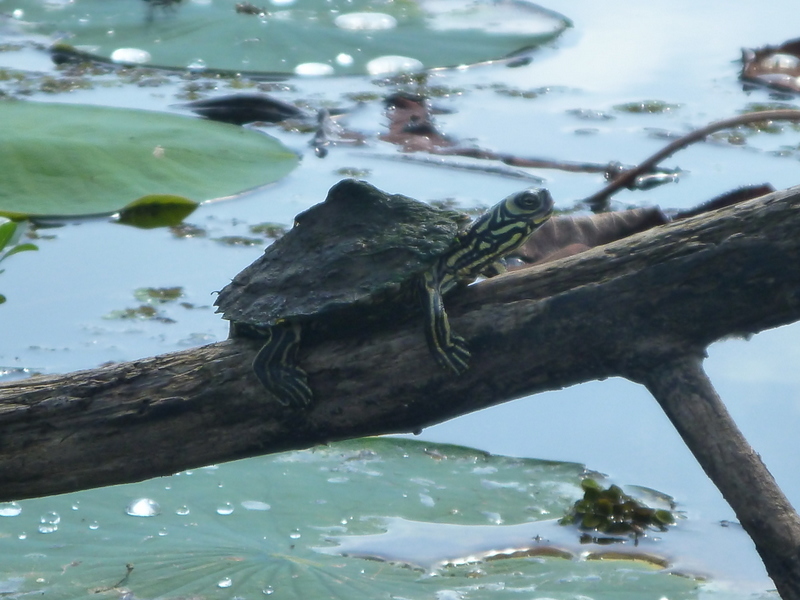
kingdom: Animalia
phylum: Chordata
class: Testudines
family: Emydidae
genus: Graptemys
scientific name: Graptemys barbouri
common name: Barbour's map turtle
